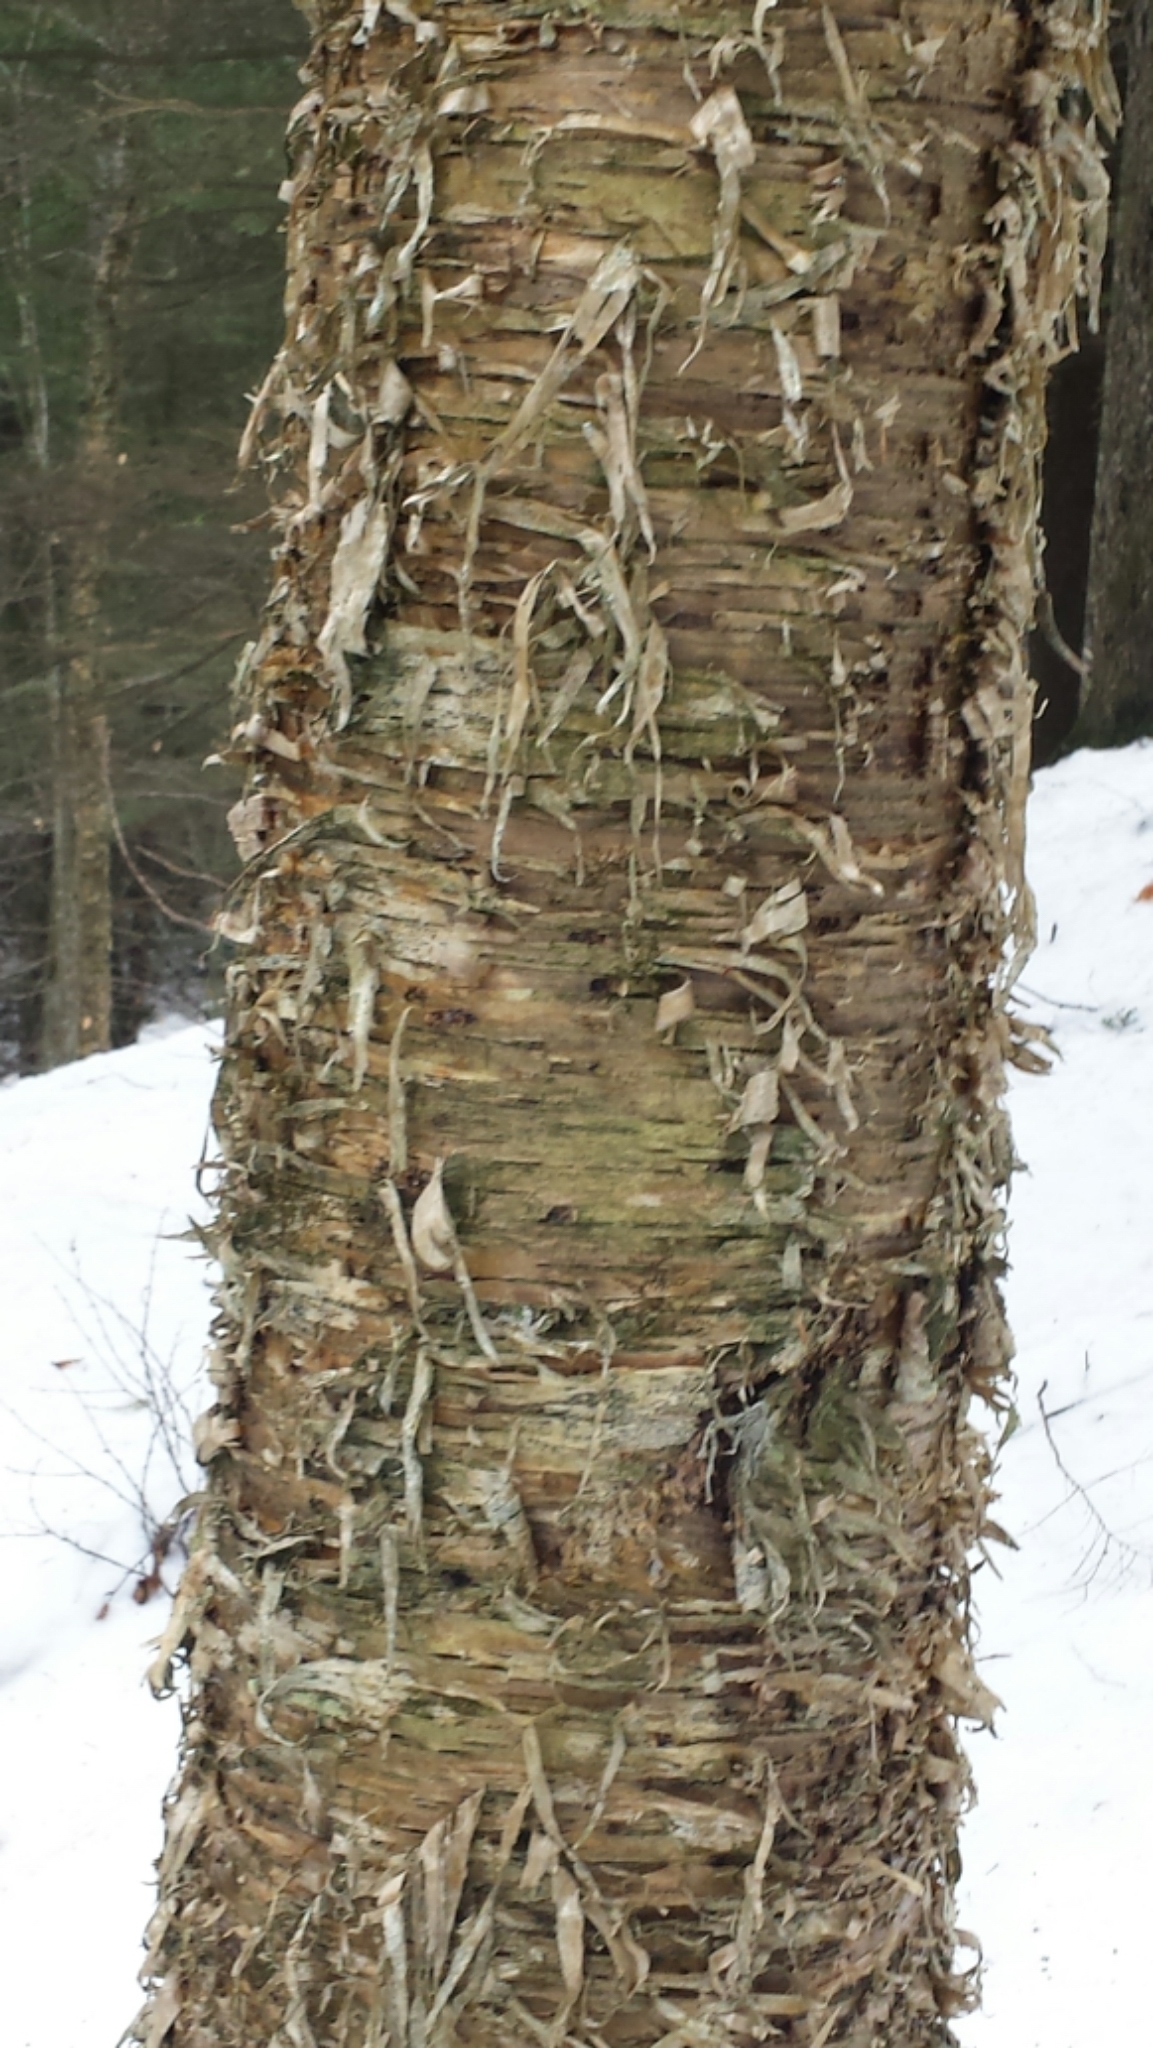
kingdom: Plantae
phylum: Tracheophyta
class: Magnoliopsida
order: Fagales
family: Betulaceae
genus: Betula
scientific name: Betula alleghaniensis
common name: Yellow birch
